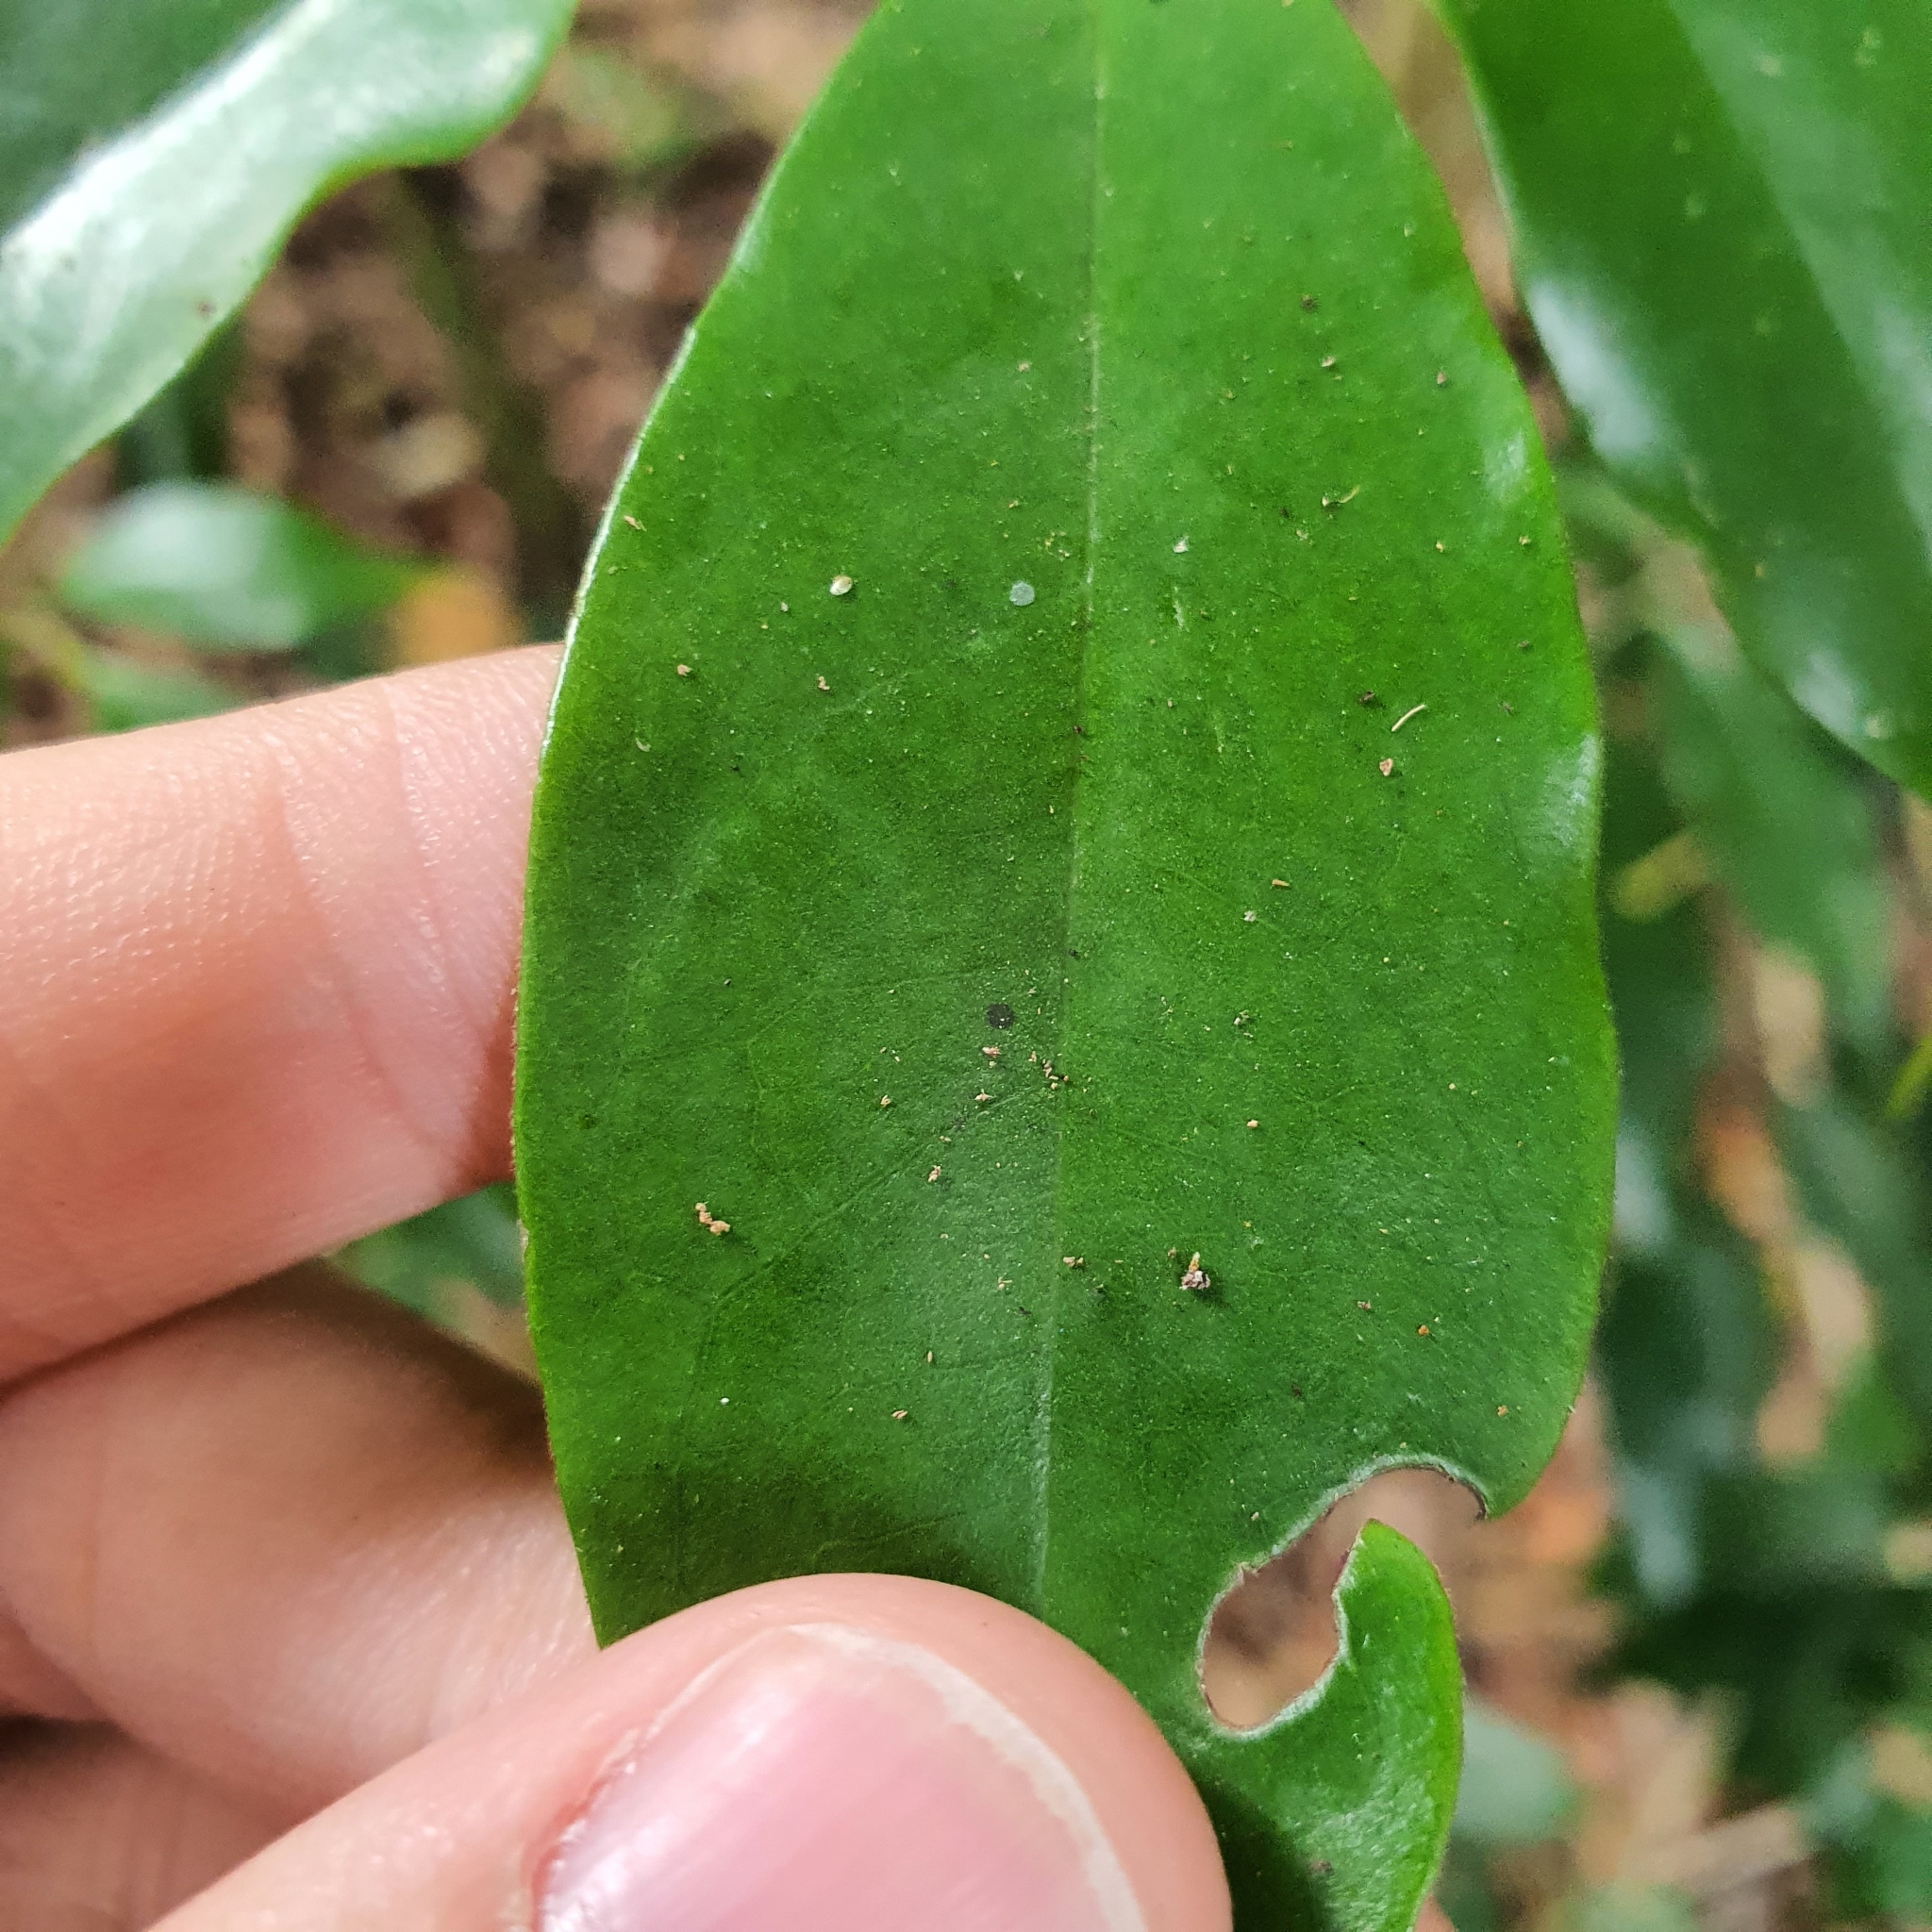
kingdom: Plantae
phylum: Tracheophyta
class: Magnoliopsida
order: Malpighiales
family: Phyllanthaceae
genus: Antidesma
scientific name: Antidesma neurocarpum
